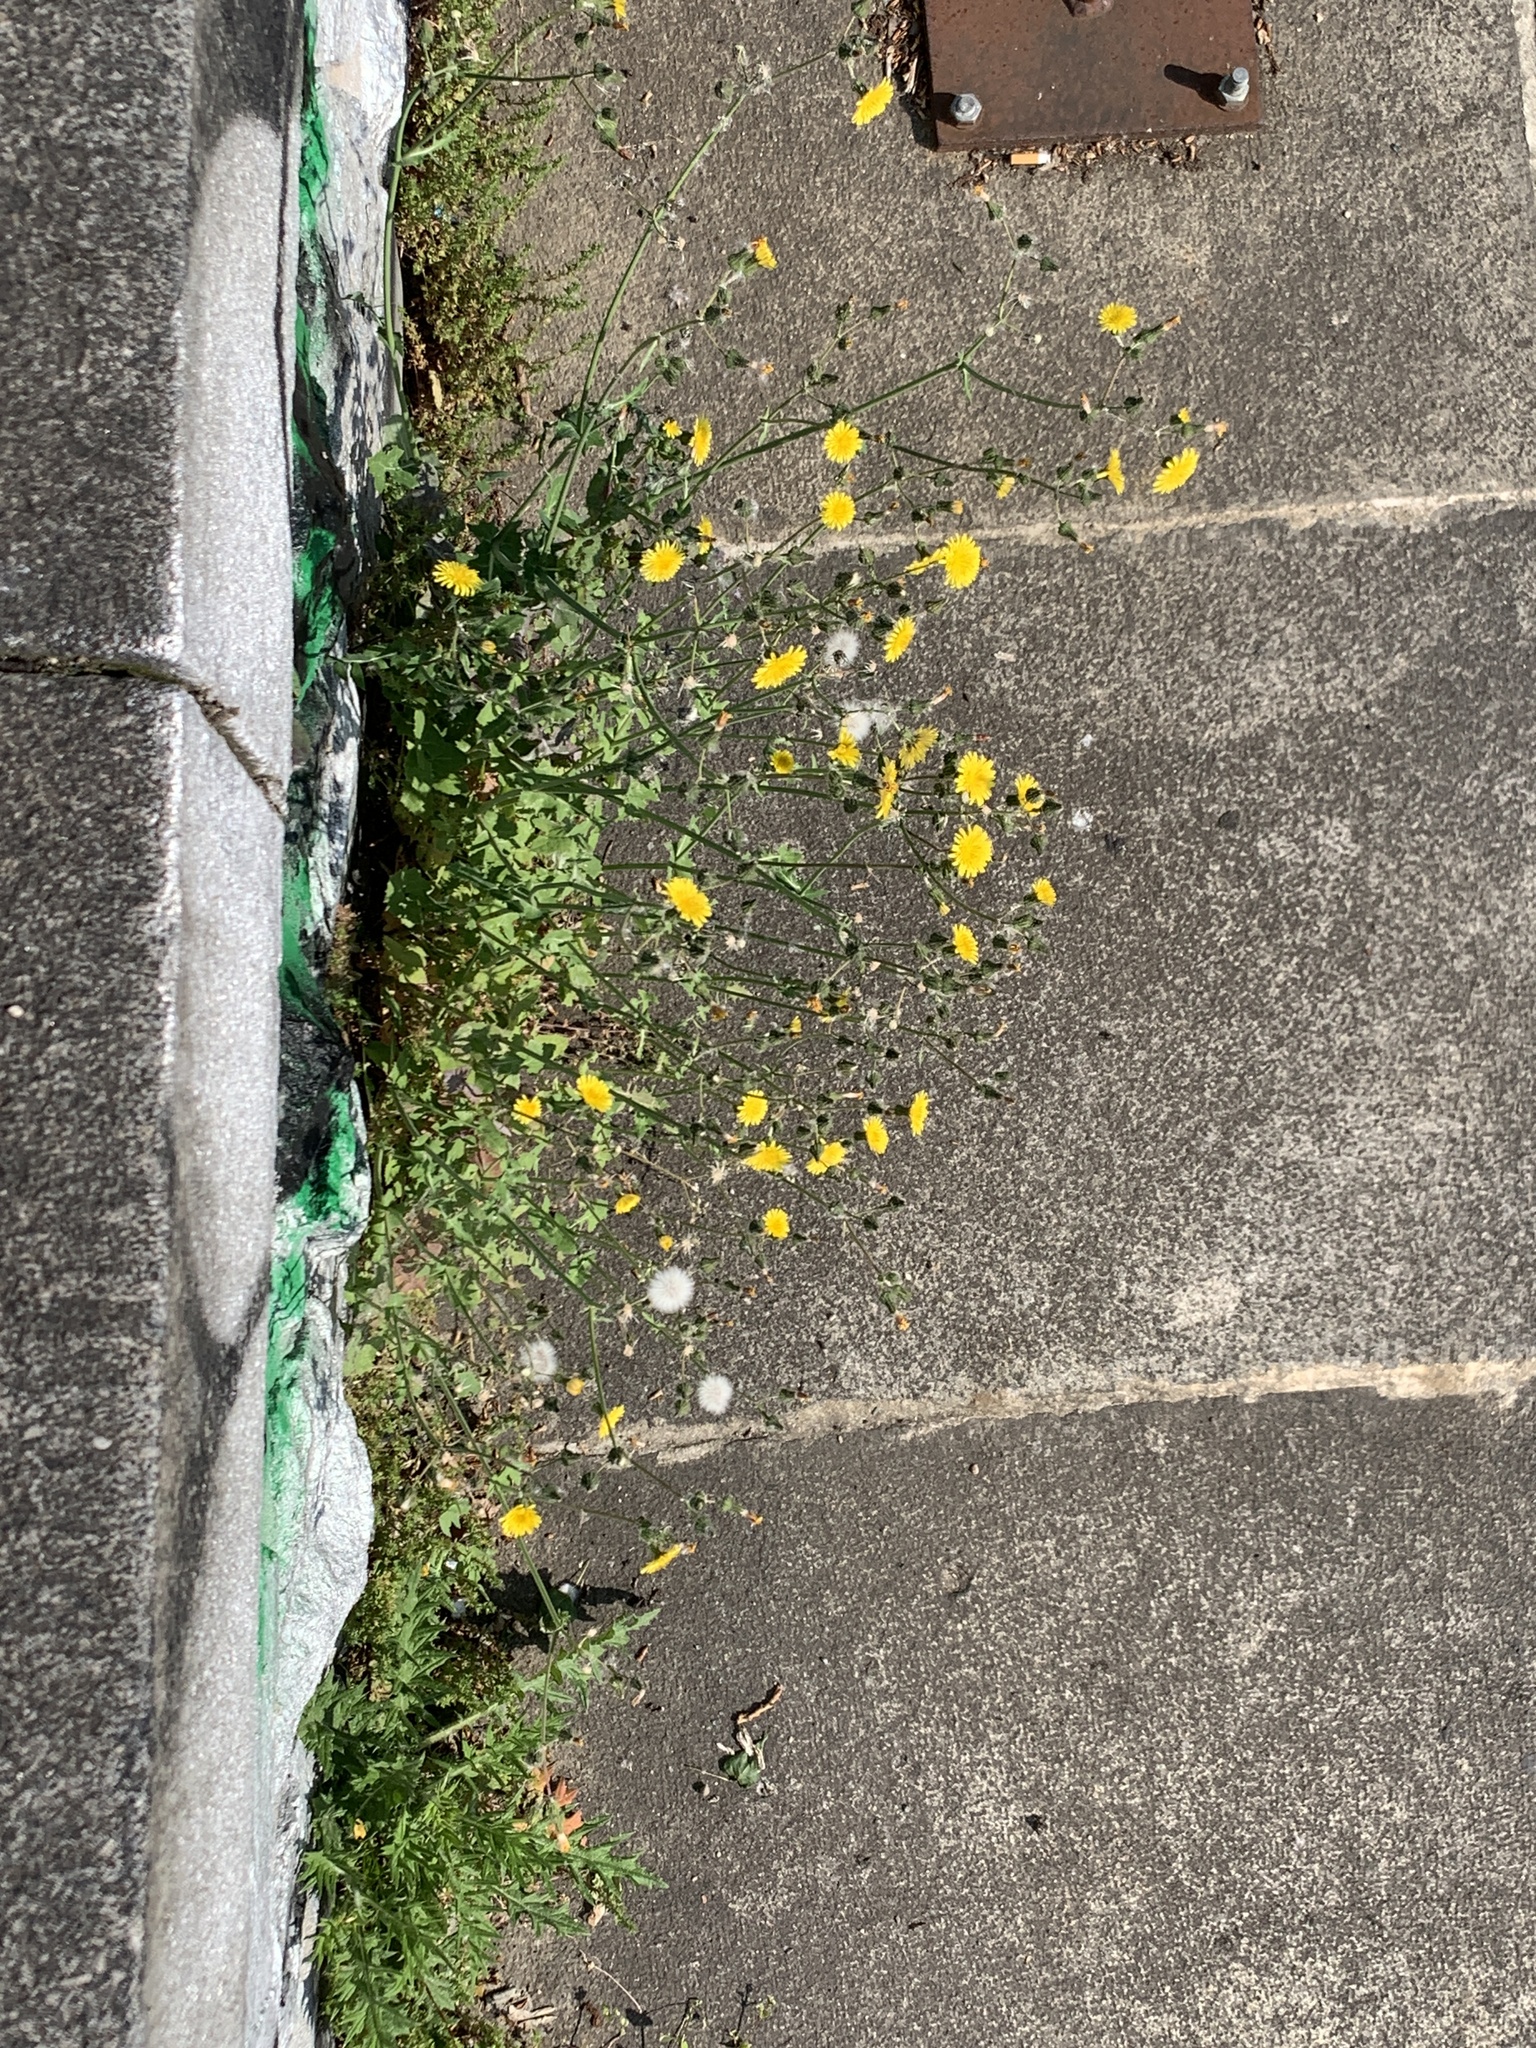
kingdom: Plantae
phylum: Tracheophyta
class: Magnoliopsida
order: Asterales
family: Asteraceae
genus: Sonchus
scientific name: Sonchus oleraceus
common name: Common sowthistle
